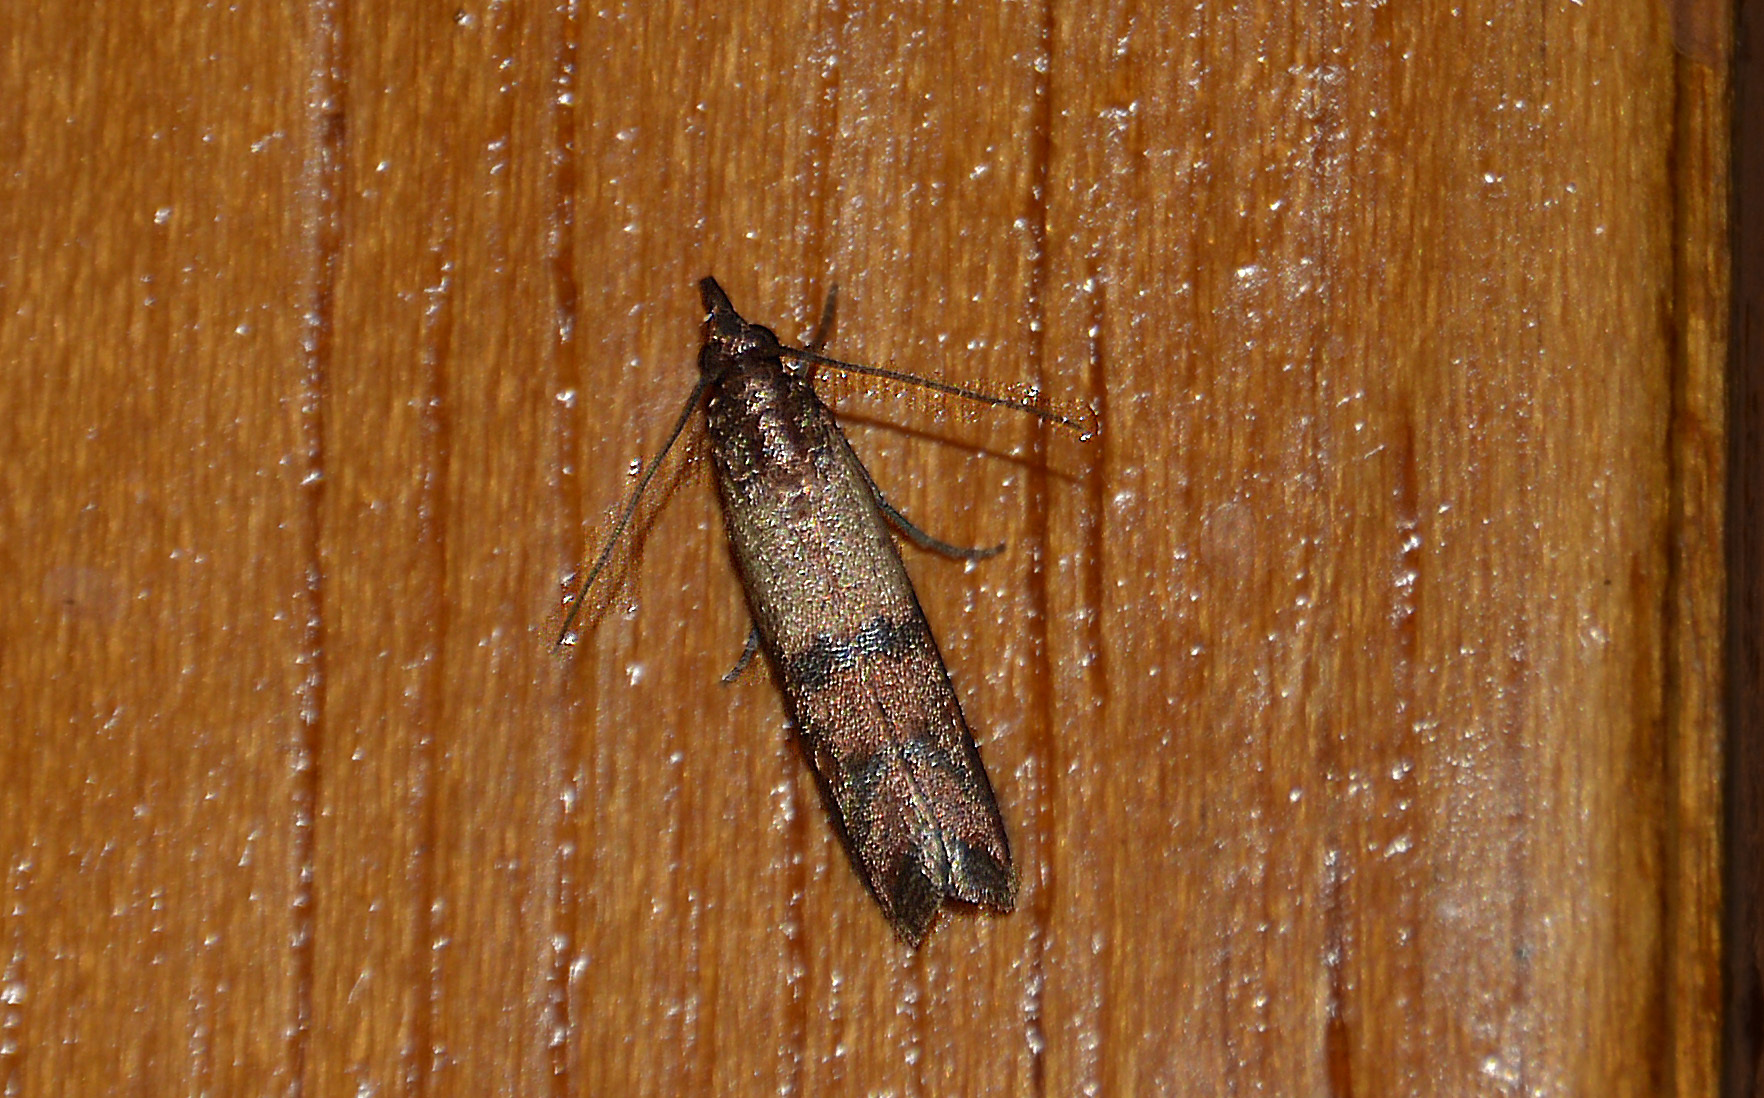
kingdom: Animalia
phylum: Arthropoda
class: Insecta
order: Lepidoptera
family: Pyralidae
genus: Plodia
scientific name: Plodia interpunctella
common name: Indian meal moth
